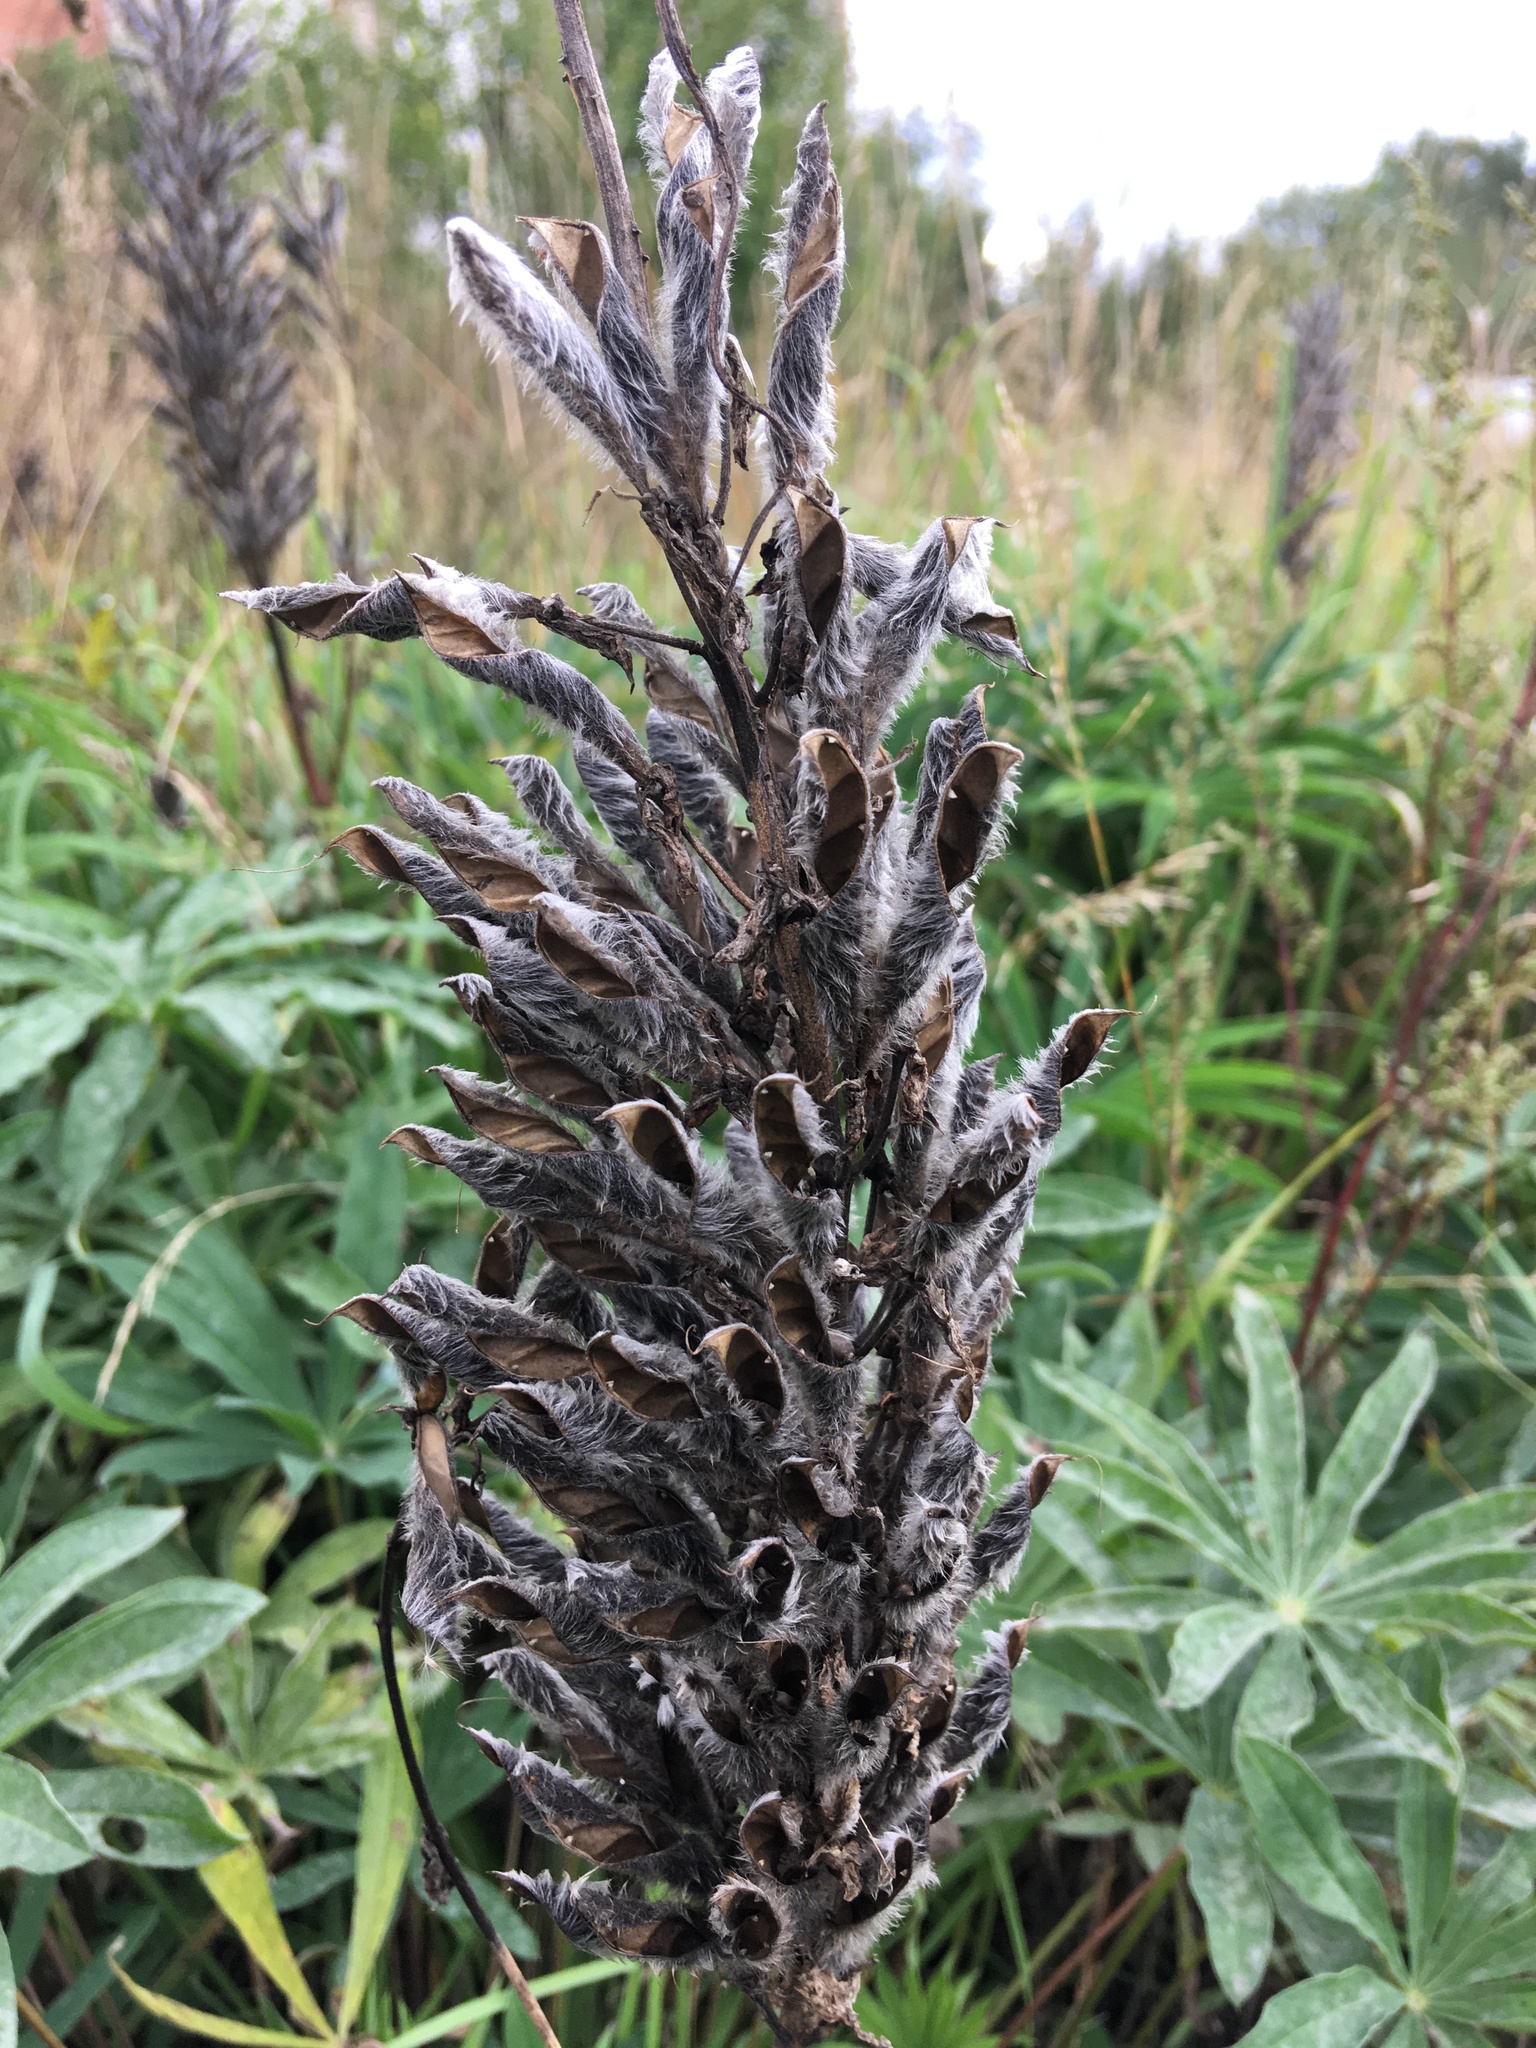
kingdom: Plantae
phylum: Tracheophyta
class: Magnoliopsida
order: Fabales
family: Fabaceae
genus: Lupinus
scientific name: Lupinus polyphyllus
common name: Garden lupin
